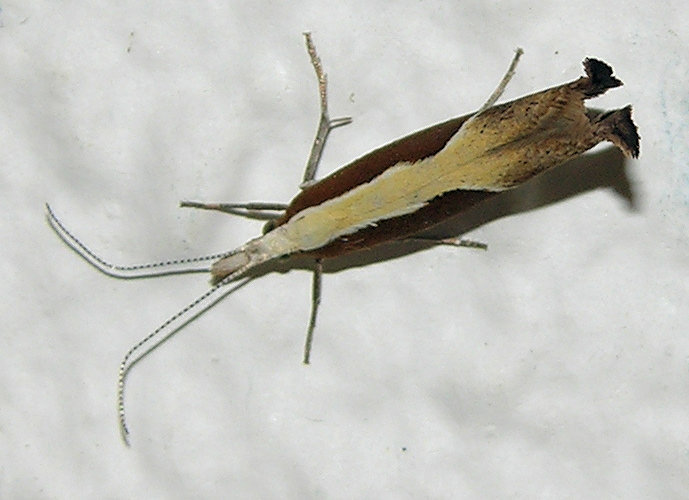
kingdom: Animalia
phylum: Arthropoda
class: Insecta
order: Lepidoptera
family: Ypsolophidae
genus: Ypsolopha
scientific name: Ypsolopha dentella
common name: Honeysuckle moth
